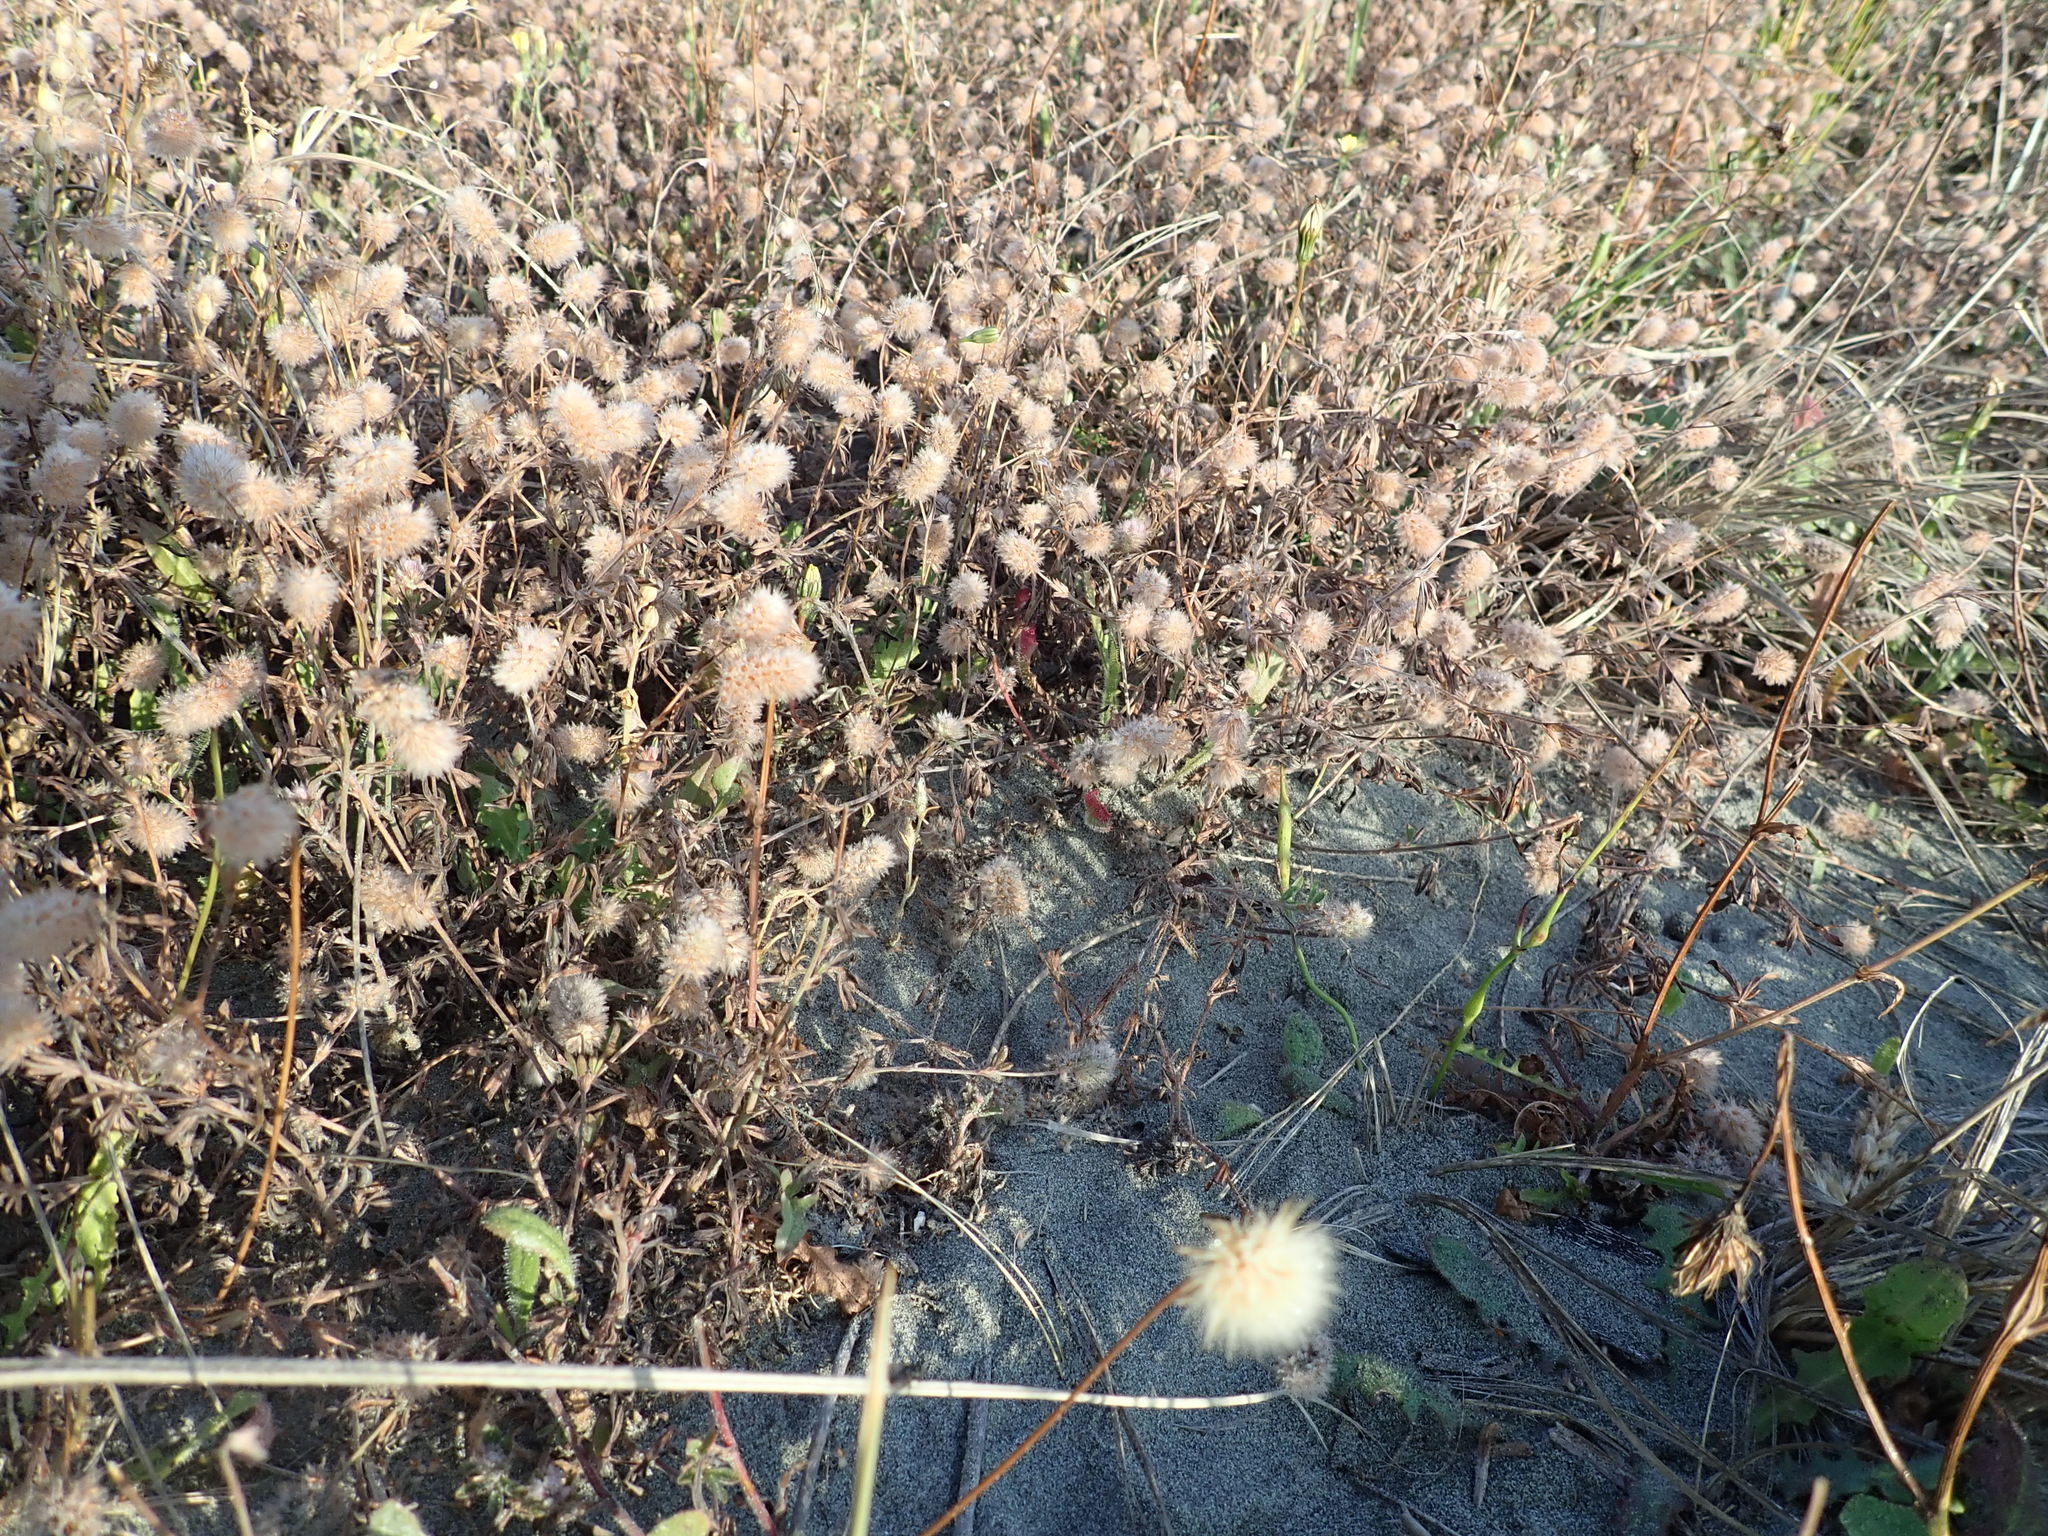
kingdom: Plantae
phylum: Tracheophyta
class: Magnoliopsida
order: Fabales
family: Fabaceae
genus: Trifolium
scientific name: Trifolium arvense
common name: Hare's-foot clover
